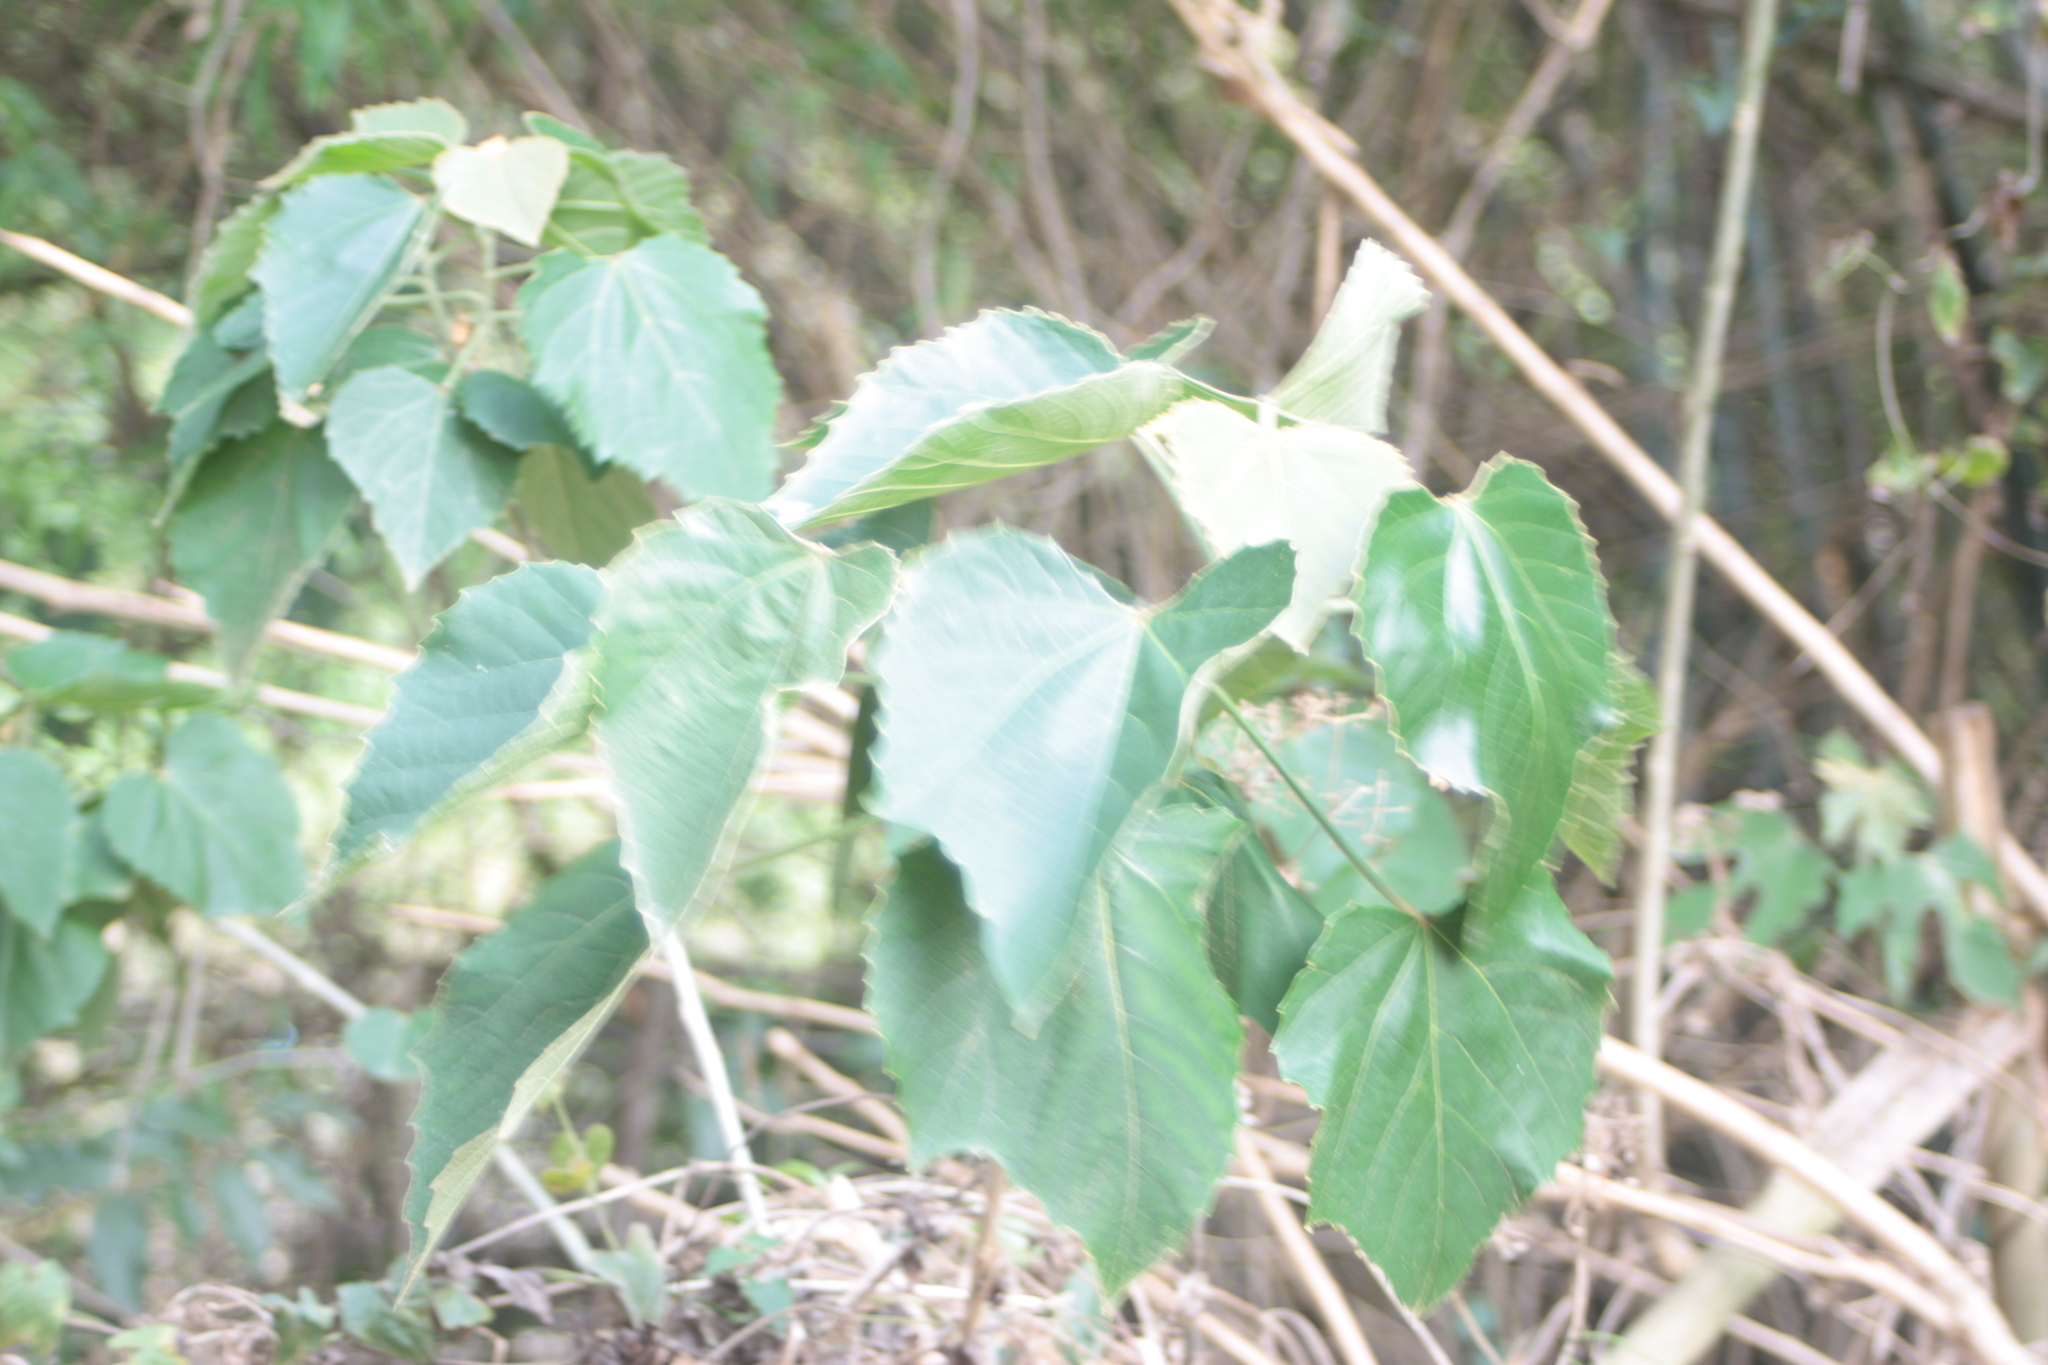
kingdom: Plantae
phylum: Tracheophyta
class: Magnoliopsida
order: Malpighiales
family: Euphorbiaceae
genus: Melanolepis
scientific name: Melanolepis multiglandulosa
